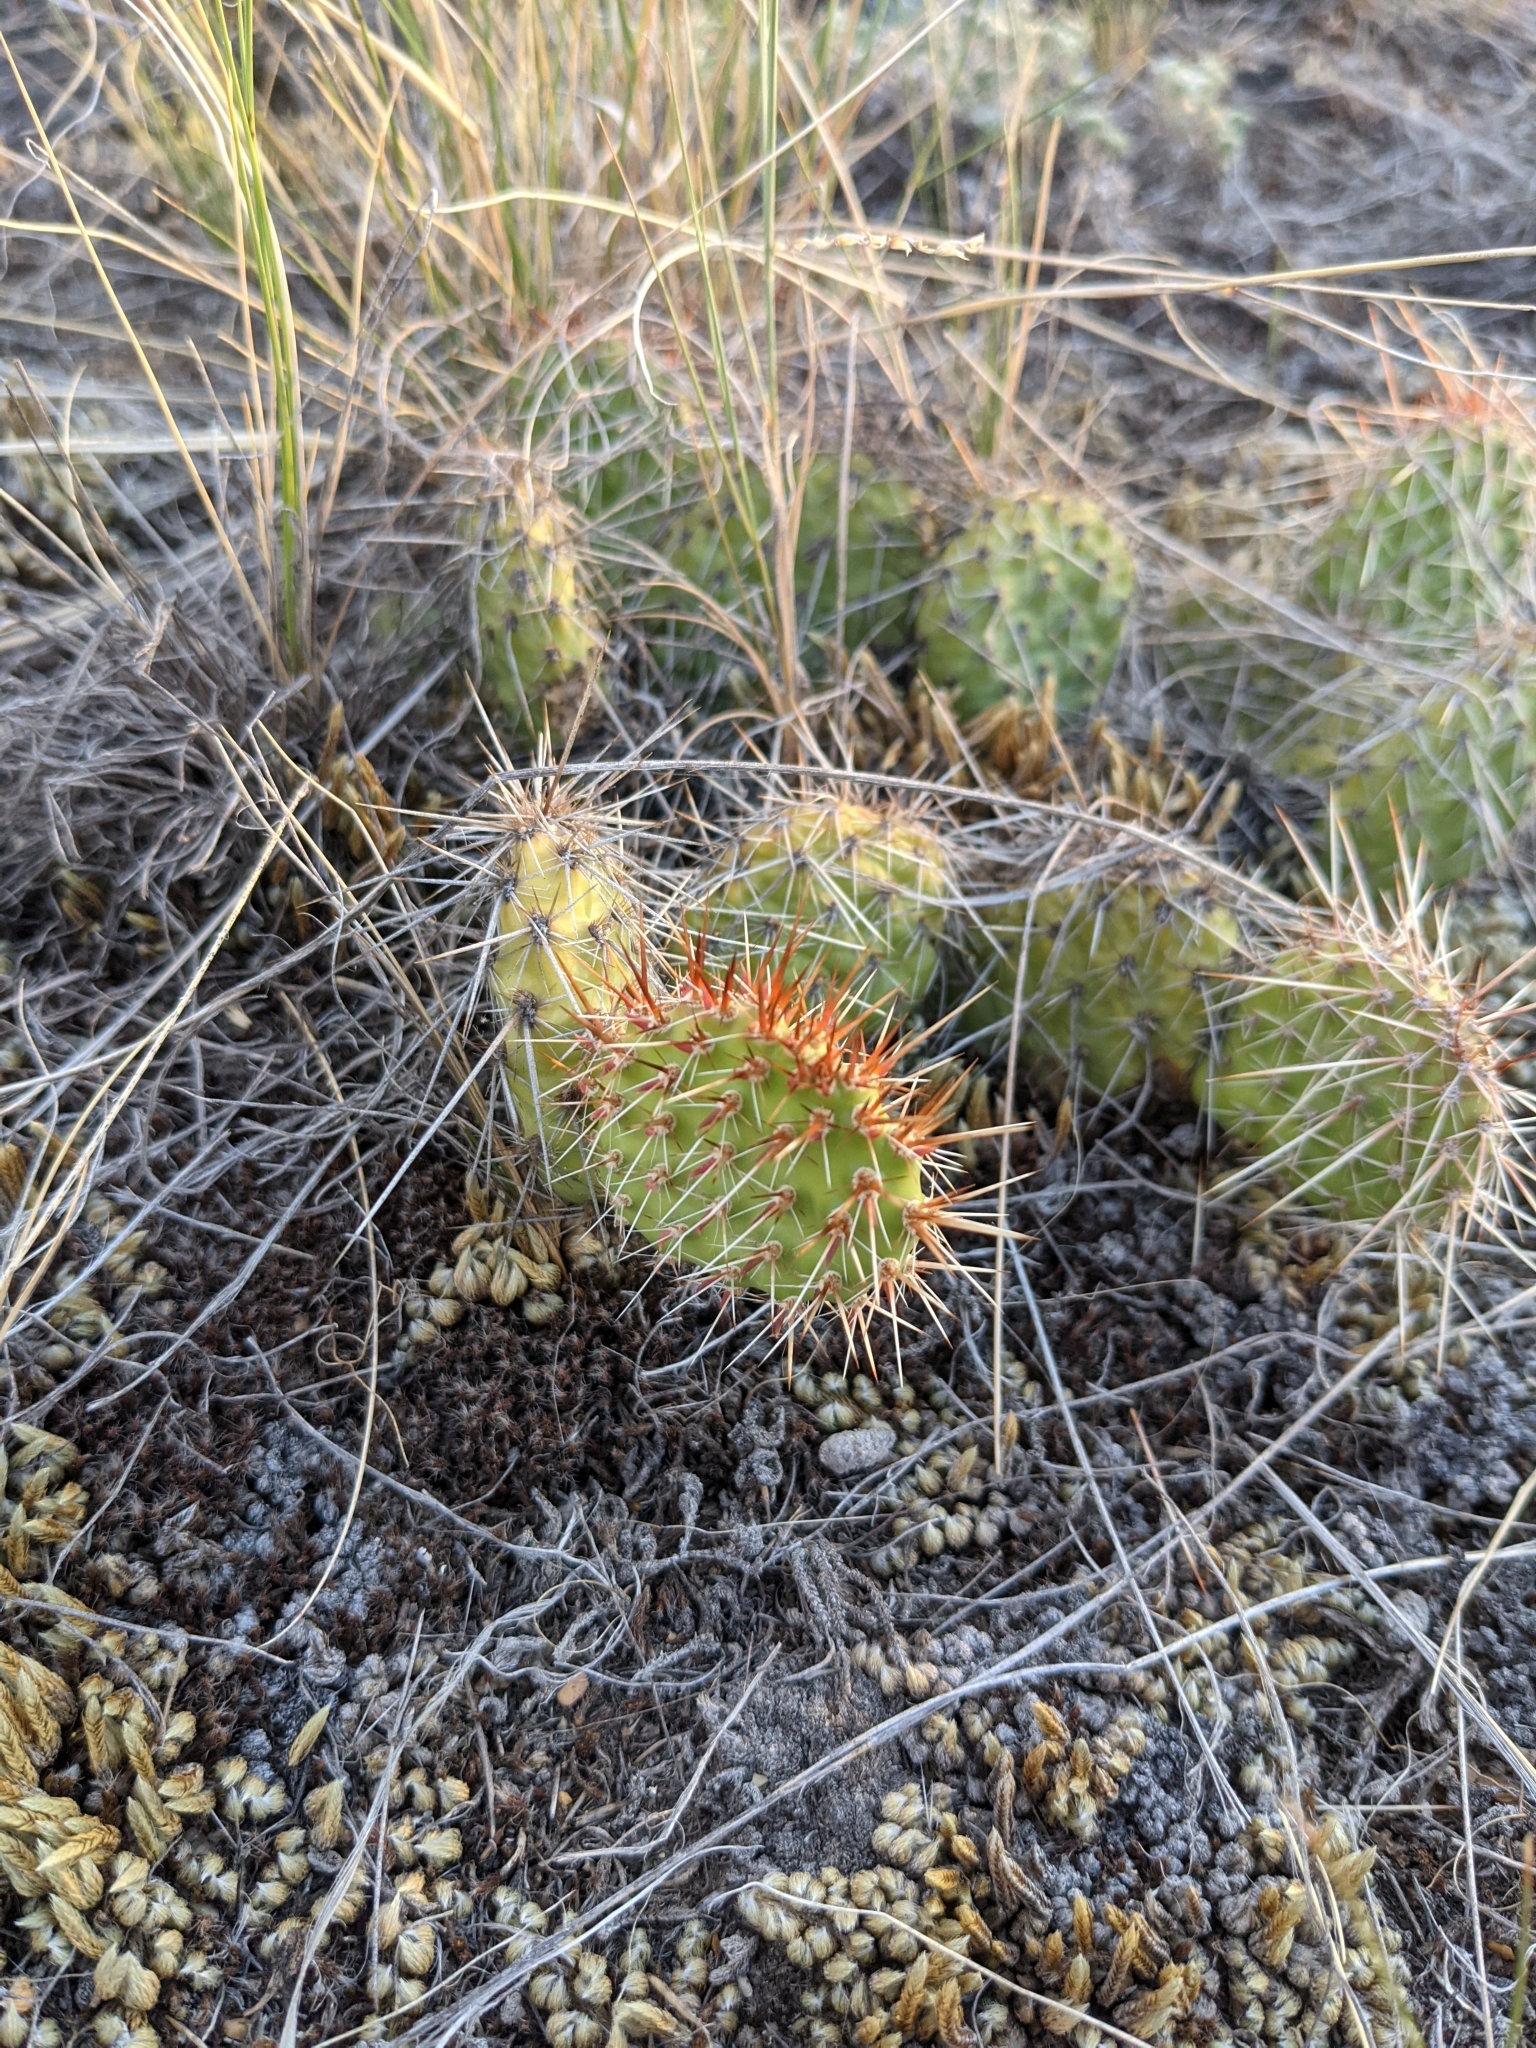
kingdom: Plantae
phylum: Tracheophyta
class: Magnoliopsida
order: Caryophyllales
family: Cactaceae
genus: Opuntia
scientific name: Opuntia polyacantha
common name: Plains prickly-pear
